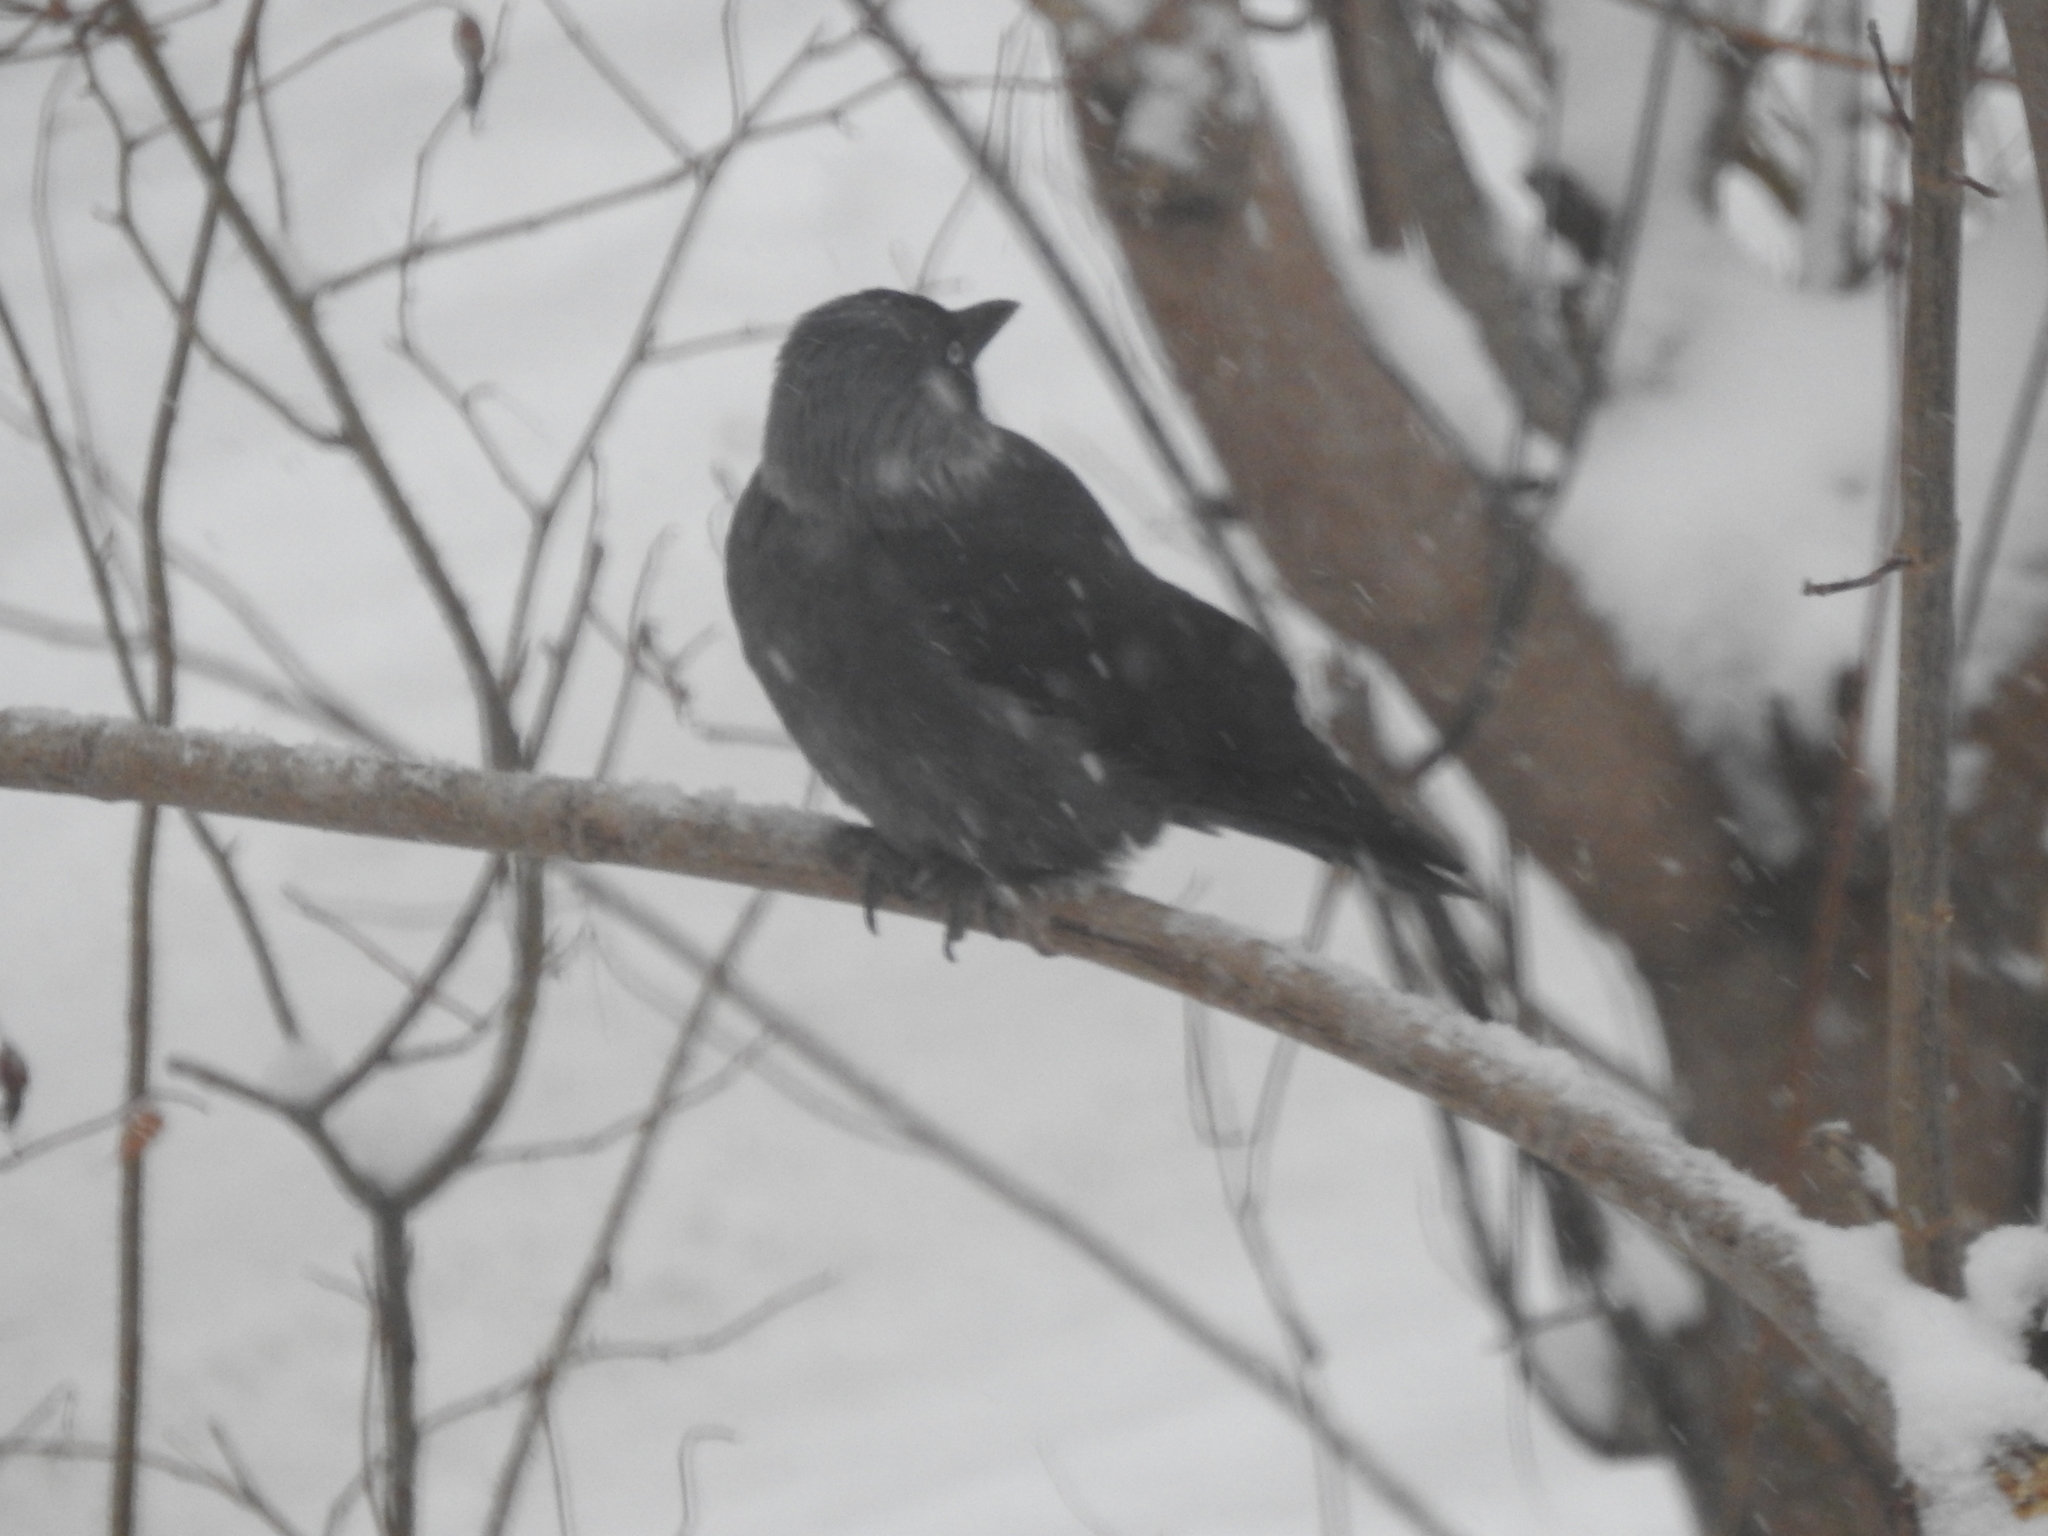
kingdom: Animalia
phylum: Chordata
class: Aves
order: Passeriformes
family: Corvidae
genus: Coloeus
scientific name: Coloeus monedula
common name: Western jackdaw
